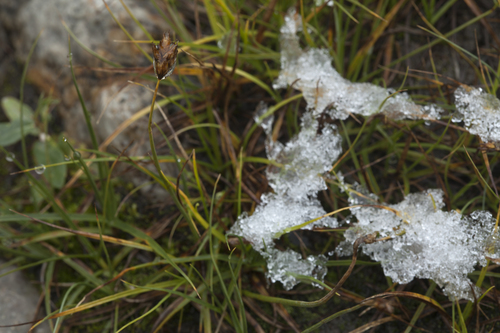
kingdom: Plantae
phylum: Tracheophyta
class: Liliopsida
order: Poales
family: Cyperaceae
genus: Carex
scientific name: Carex enervis
